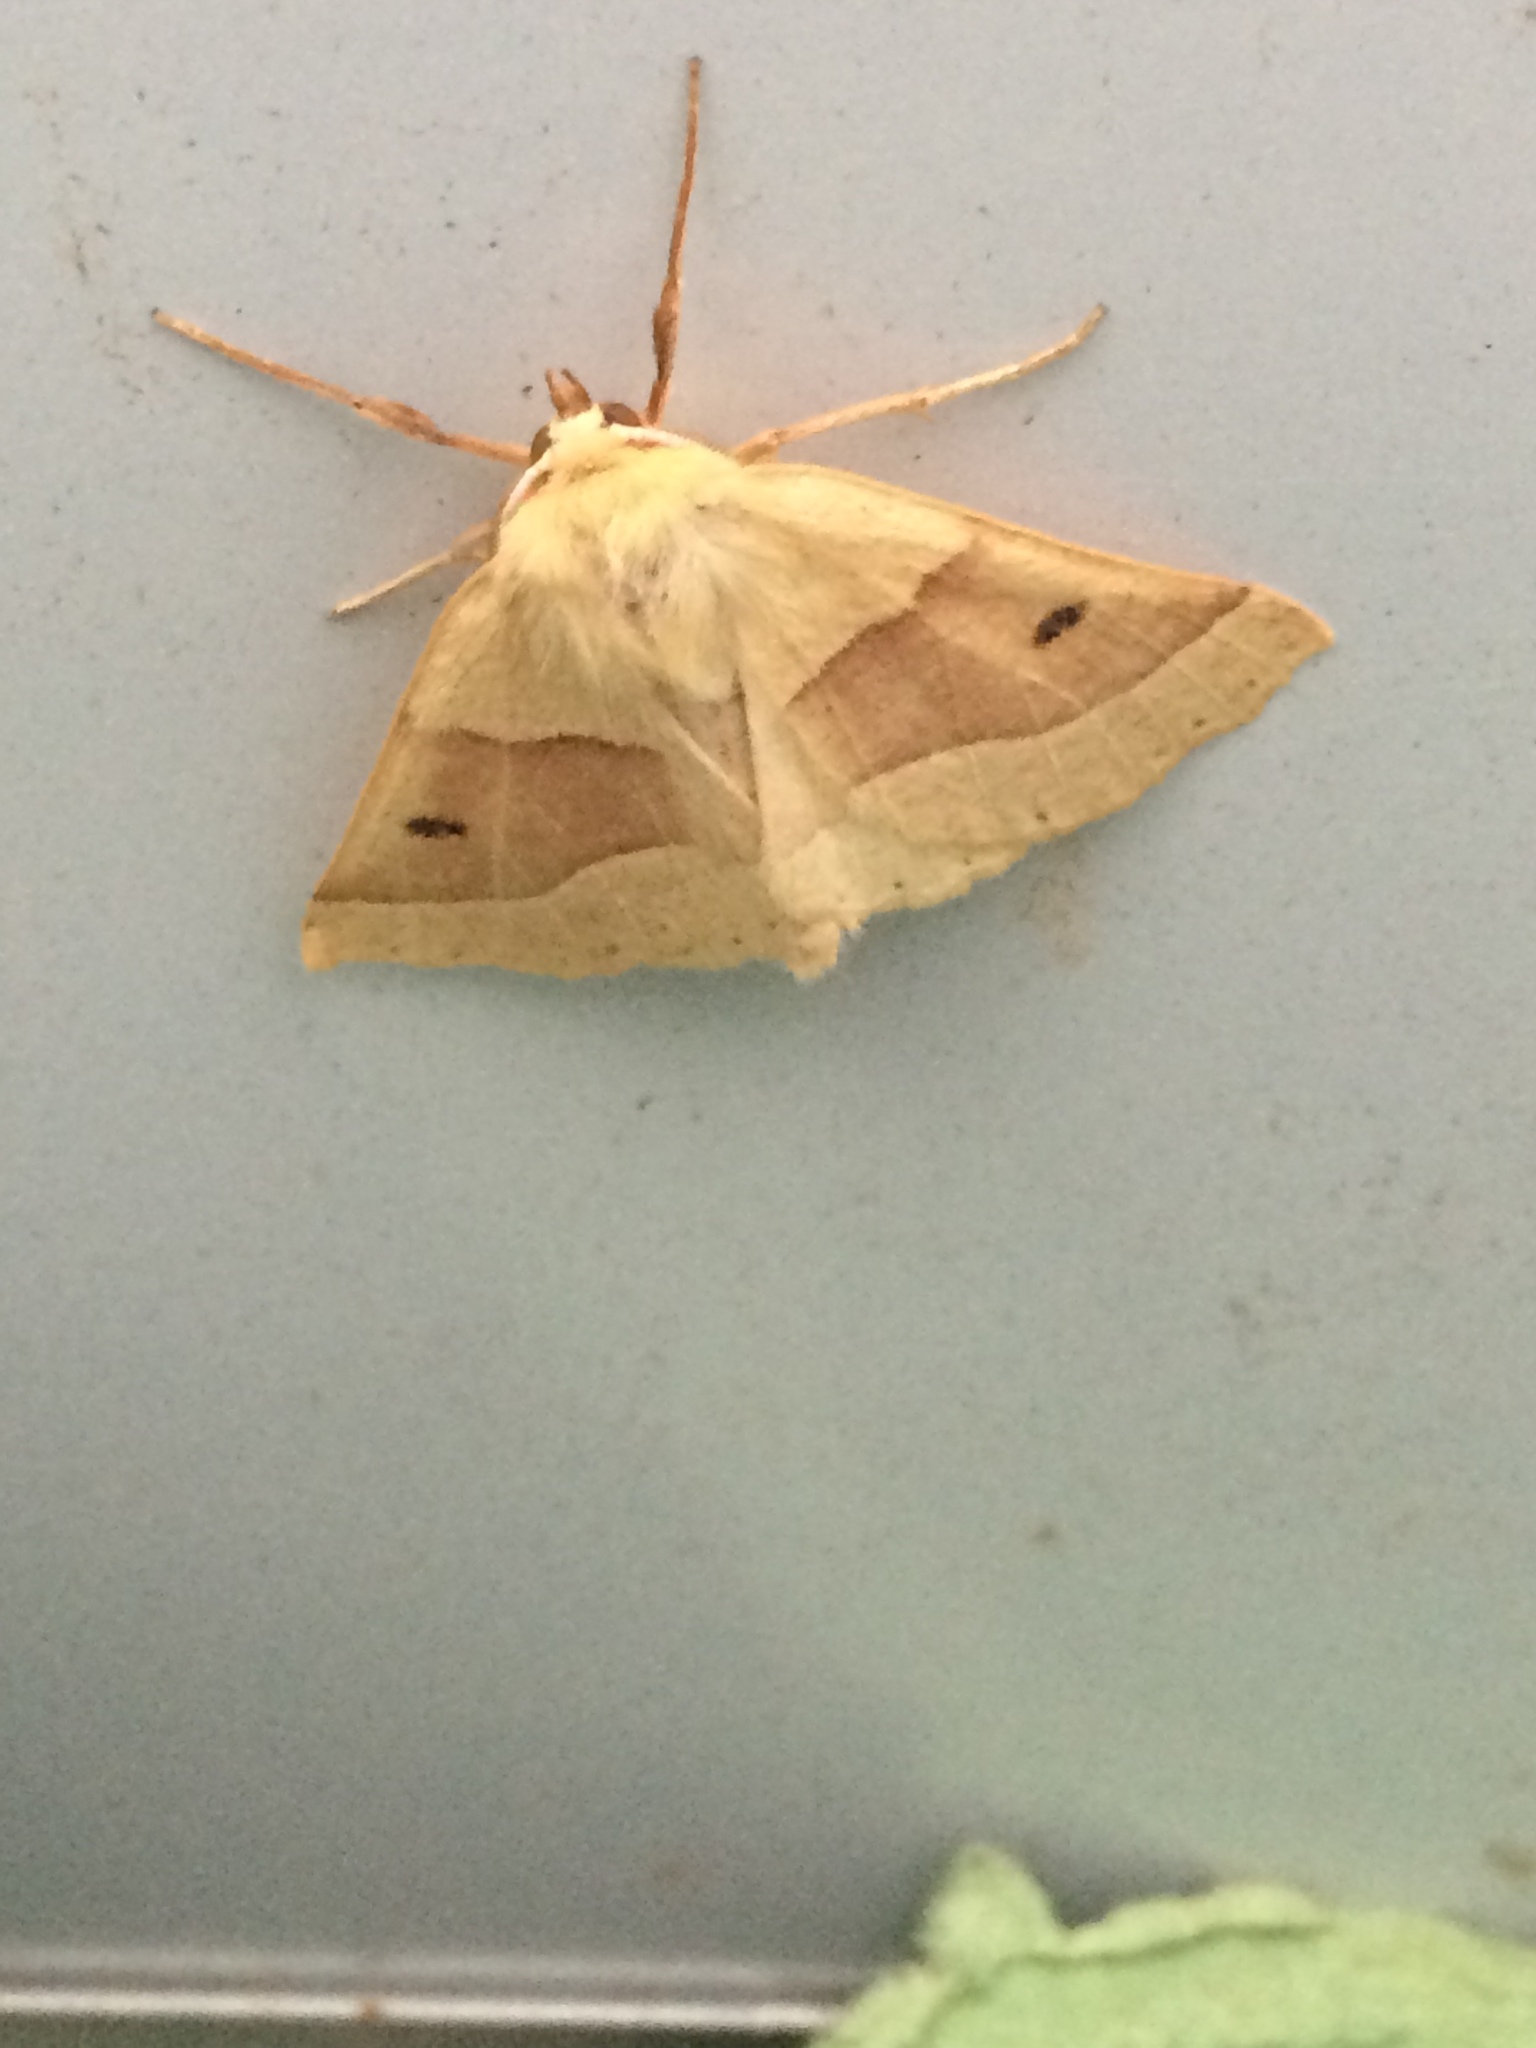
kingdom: Animalia
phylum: Arthropoda
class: Insecta
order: Lepidoptera
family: Geometridae
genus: Crocallis
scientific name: Crocallis elinguaria
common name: Scalloped oak
